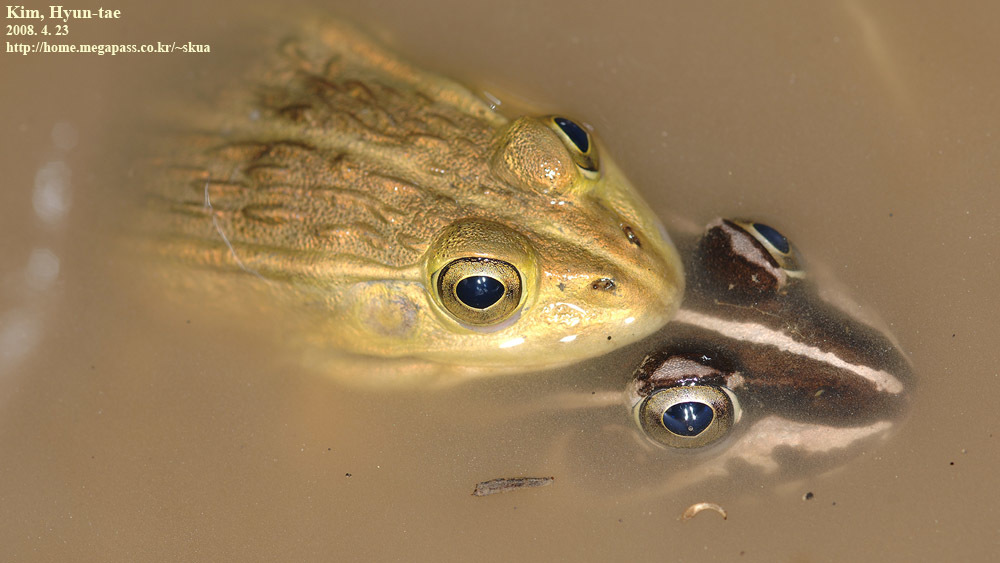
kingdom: Animalia
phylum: Chordata
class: Amphibia
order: Anura
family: Ranidae
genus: Pelophylax
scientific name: Pelophylax nigromaculatus
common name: Black-spotted pond frog
